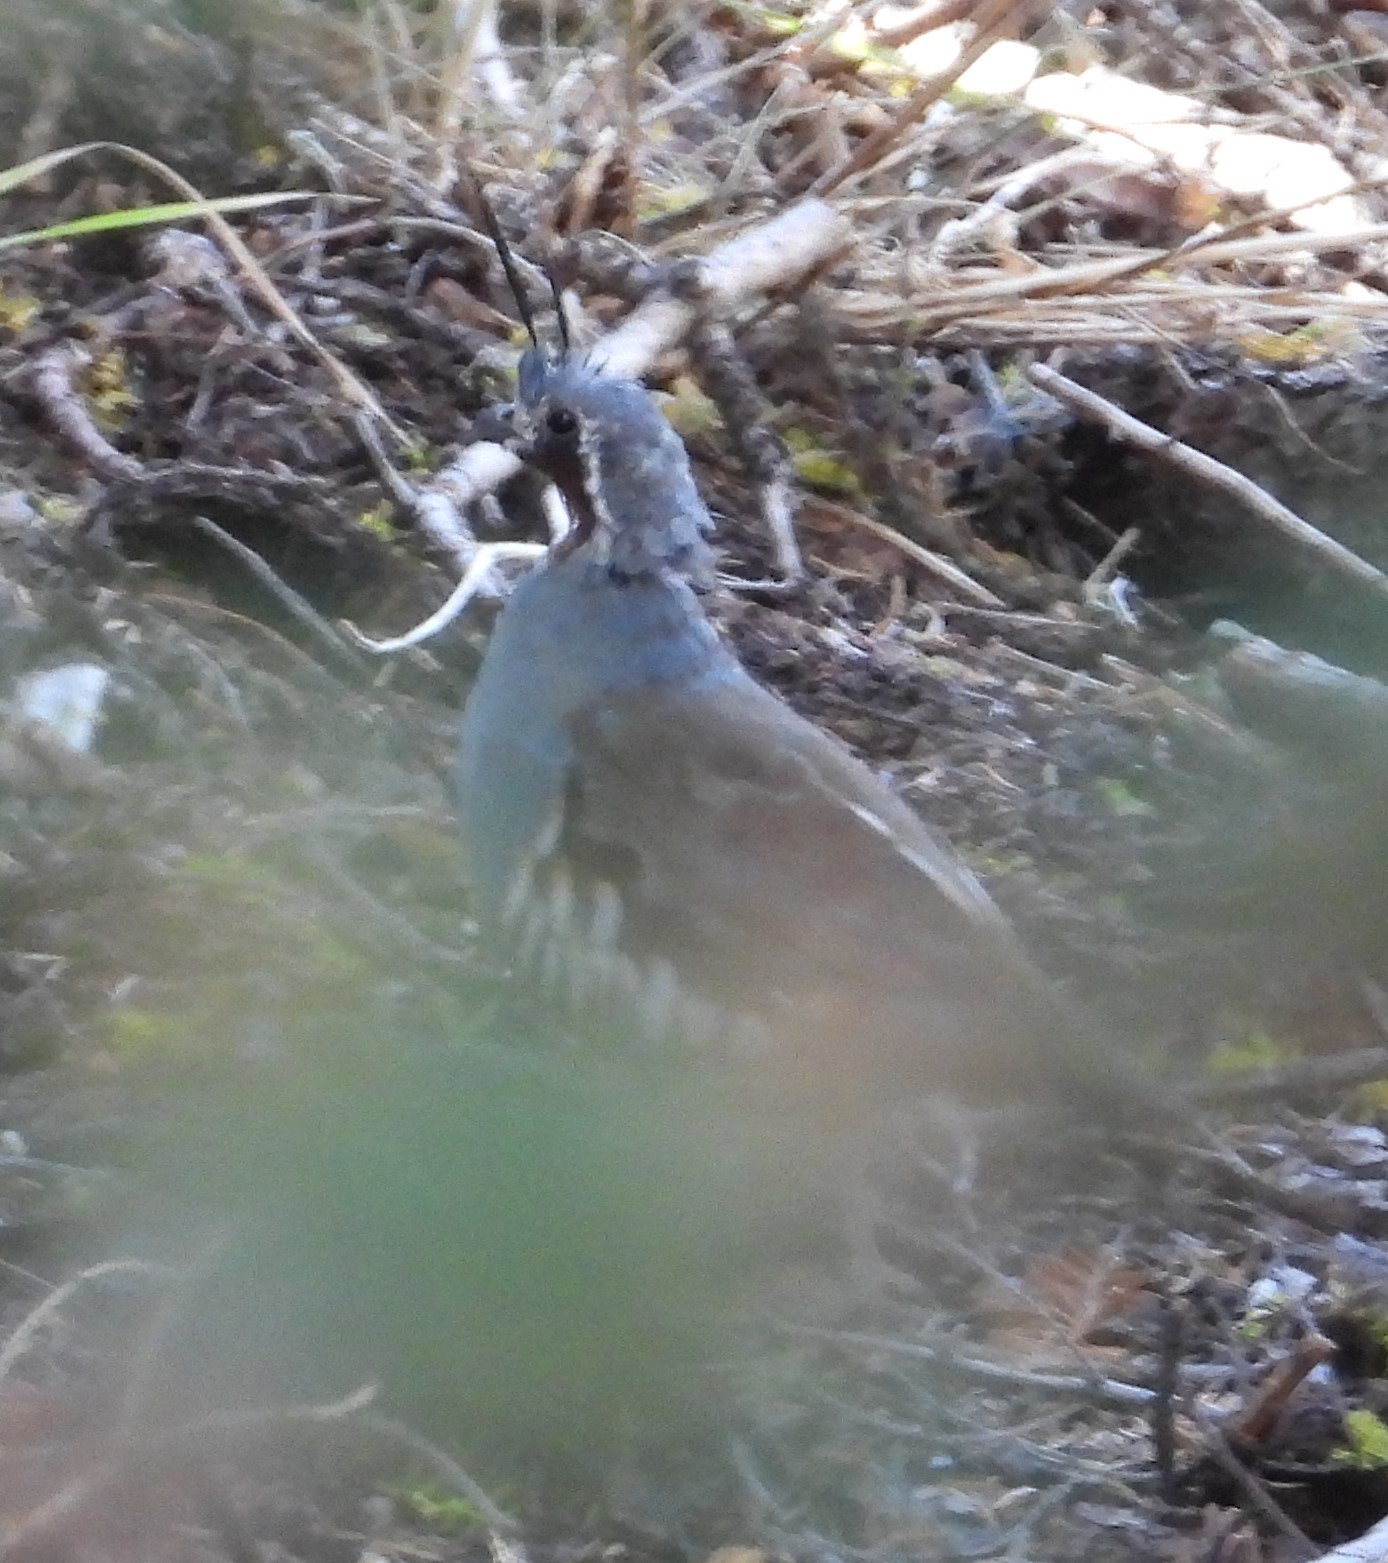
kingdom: Animalia
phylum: Chordata
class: Aves
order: Galliformes
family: Odontophoridae
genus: Oreortyx
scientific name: Oreortyx pictus
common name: Mountain quail
